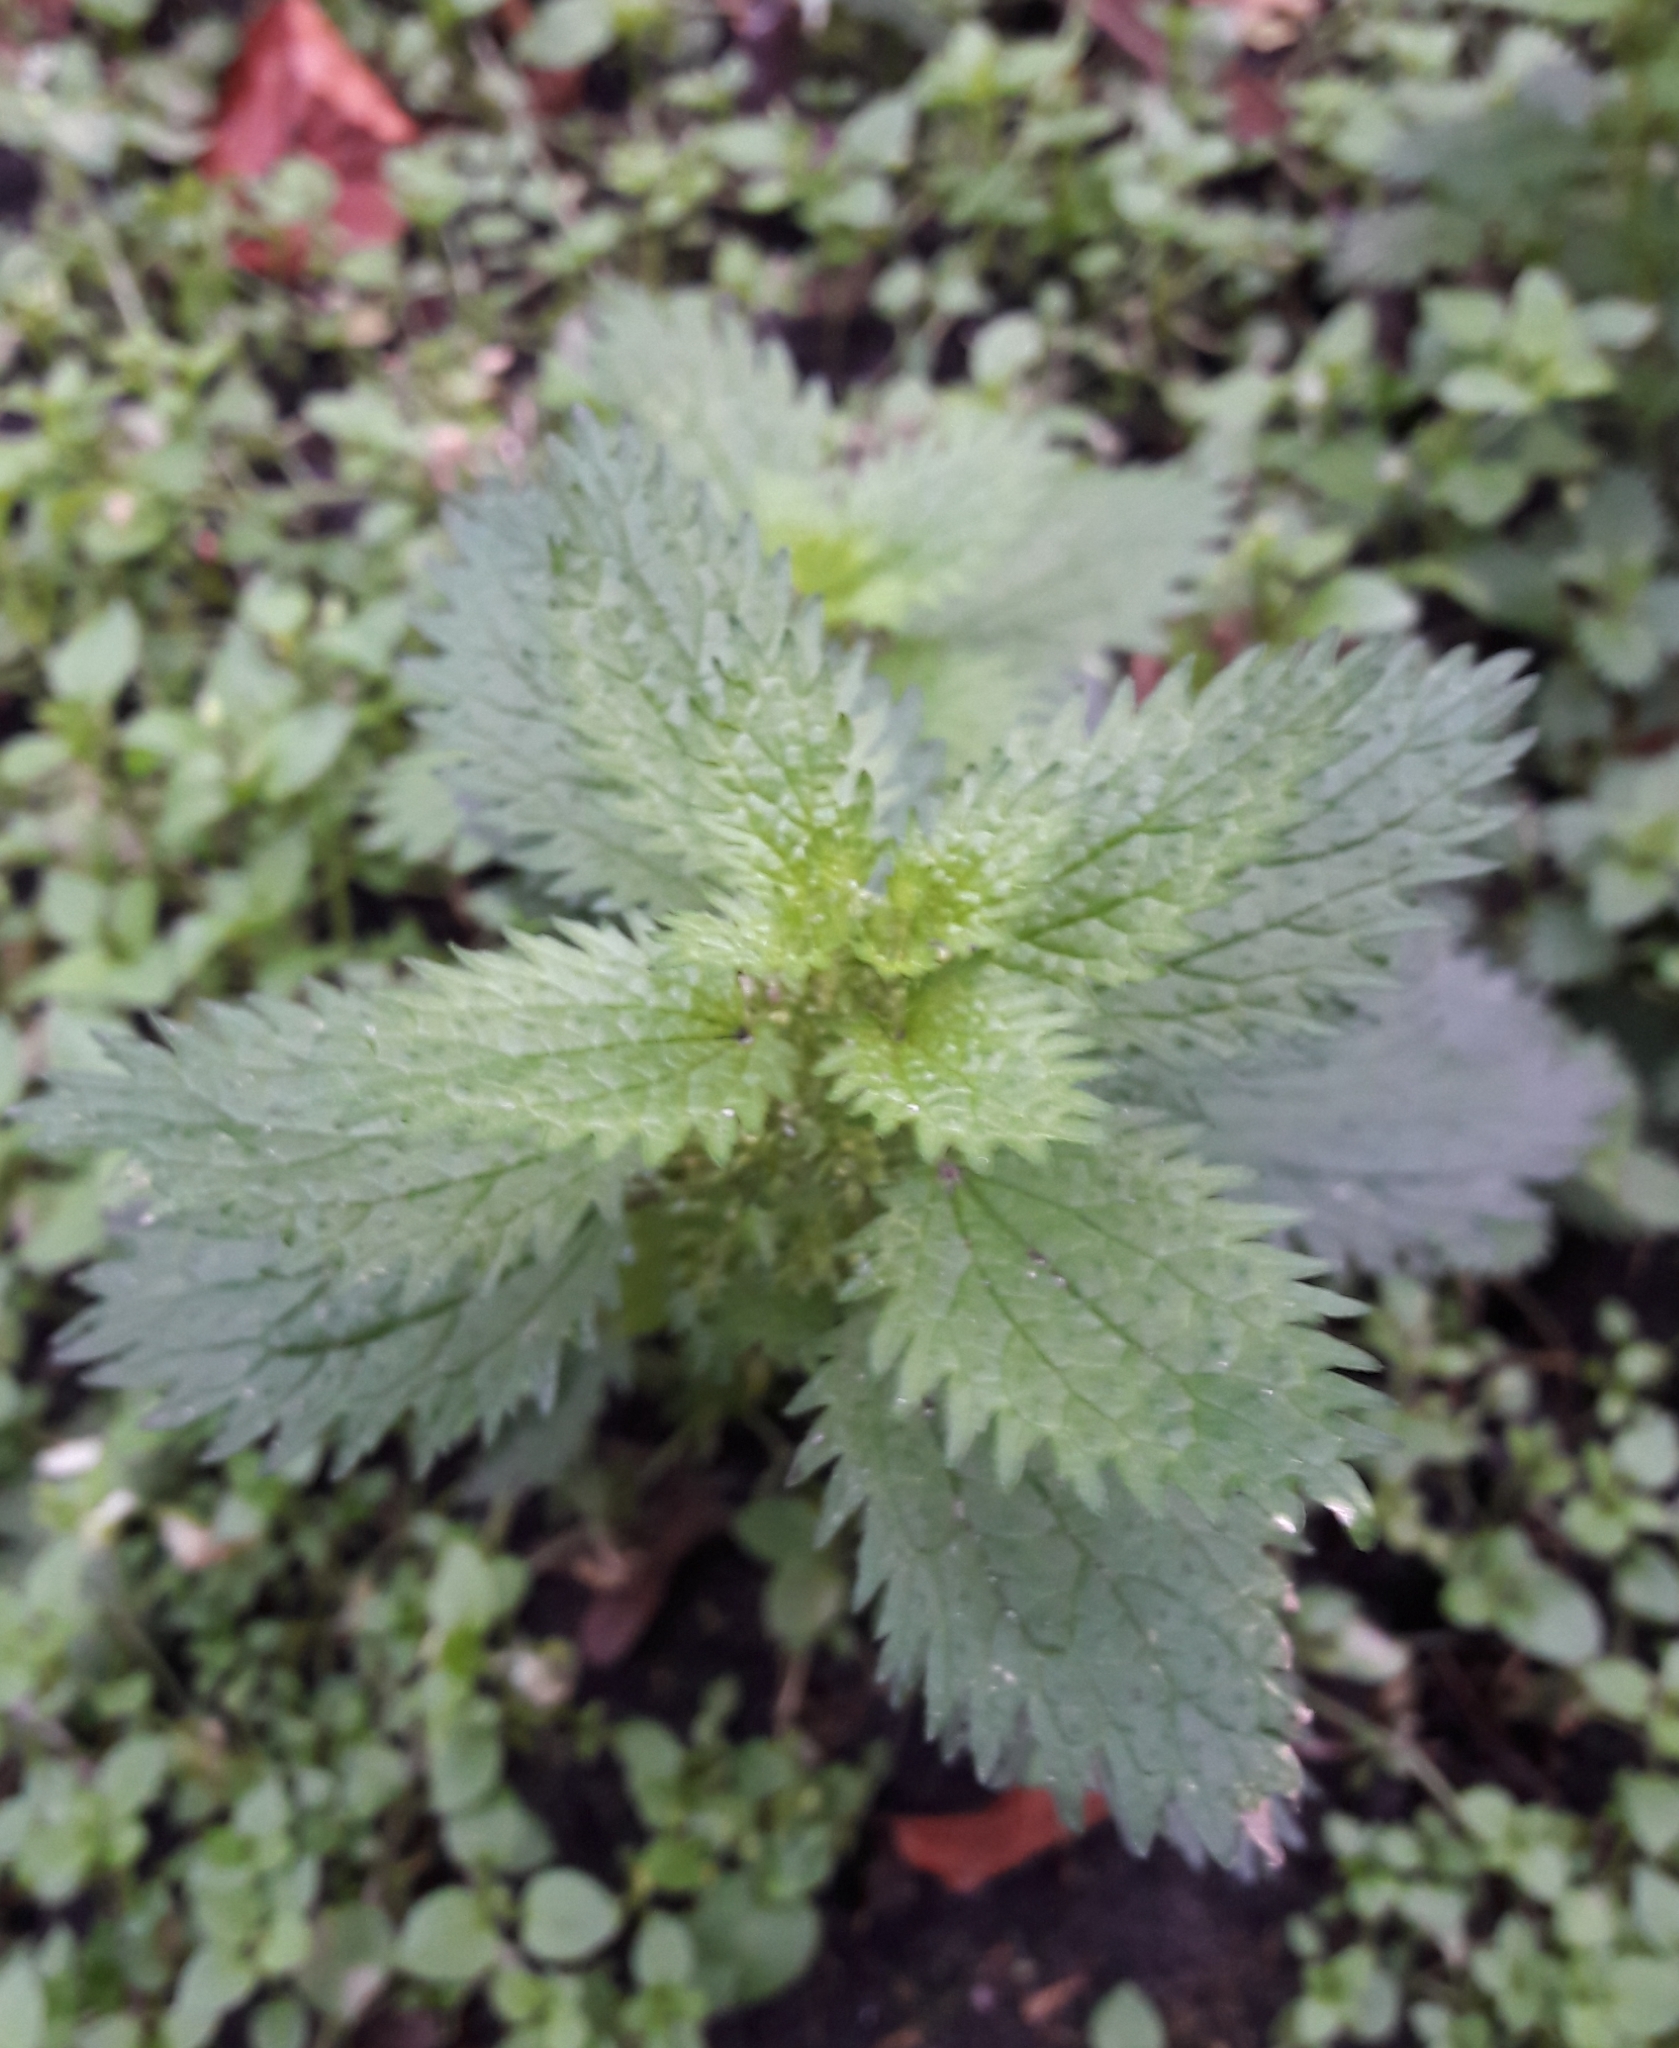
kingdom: Plantae
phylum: Tracheophyta
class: Magnoliopsida
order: Rosales
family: Urticaceae
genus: Urtica
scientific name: Urtica urens
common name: Dwarf nettle
